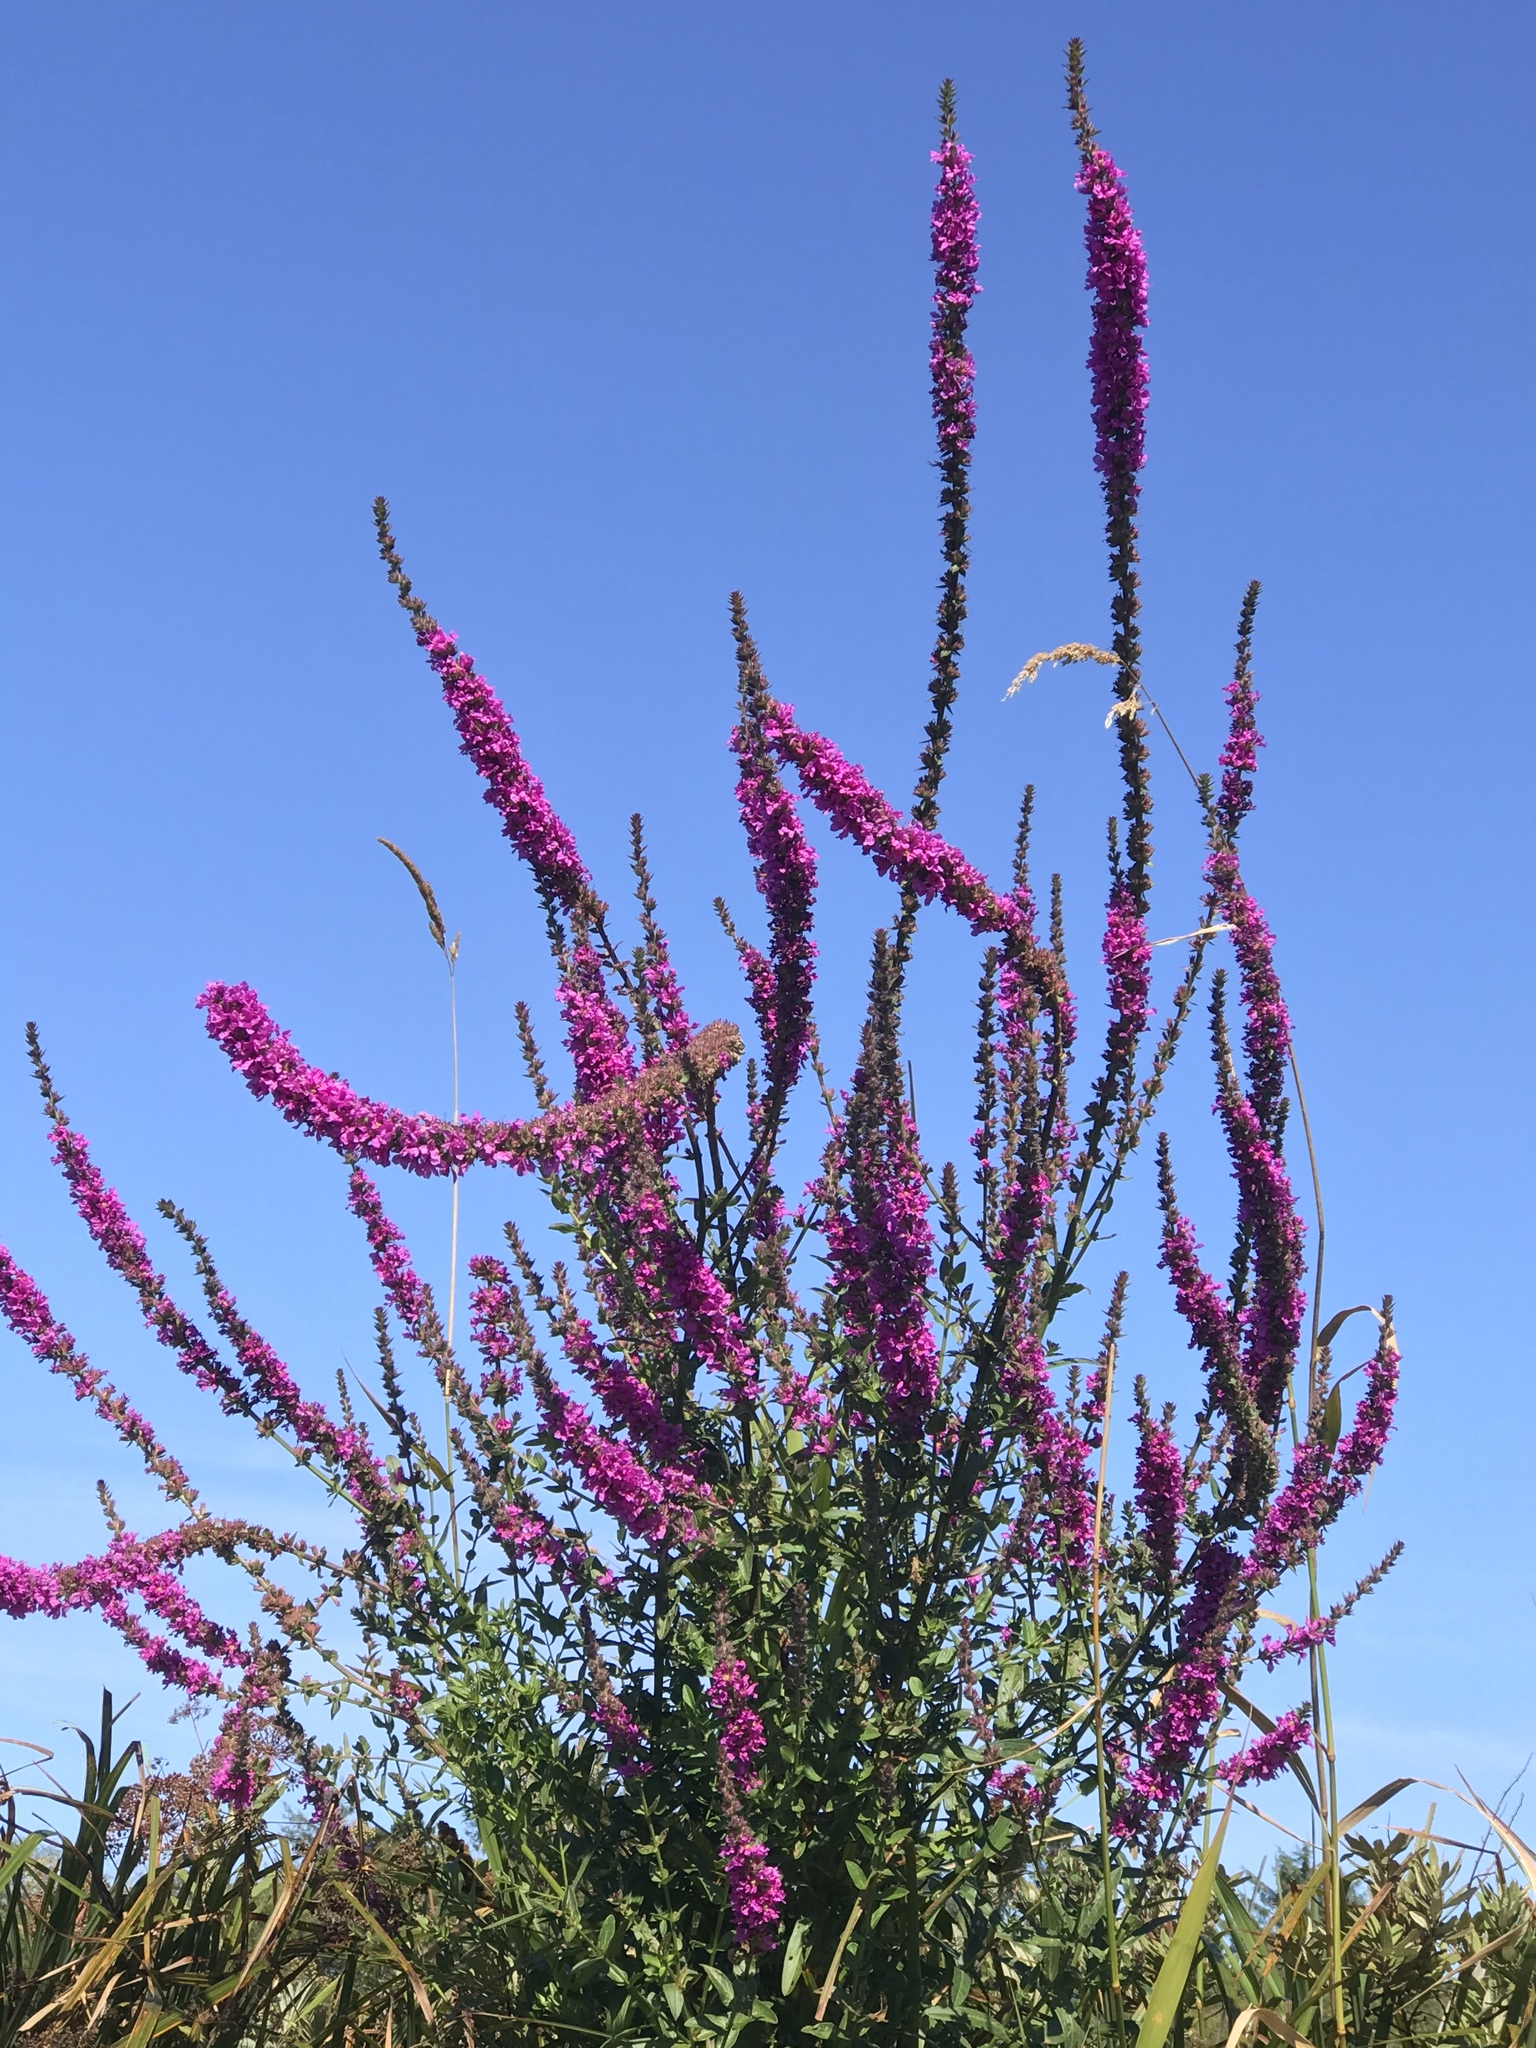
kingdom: Plantae
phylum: Tracheophyta
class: Magnoliopsida
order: Myrtales
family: Lythraceae
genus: Lythrum
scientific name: Lythrum salicaria
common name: Purple loosestrife
